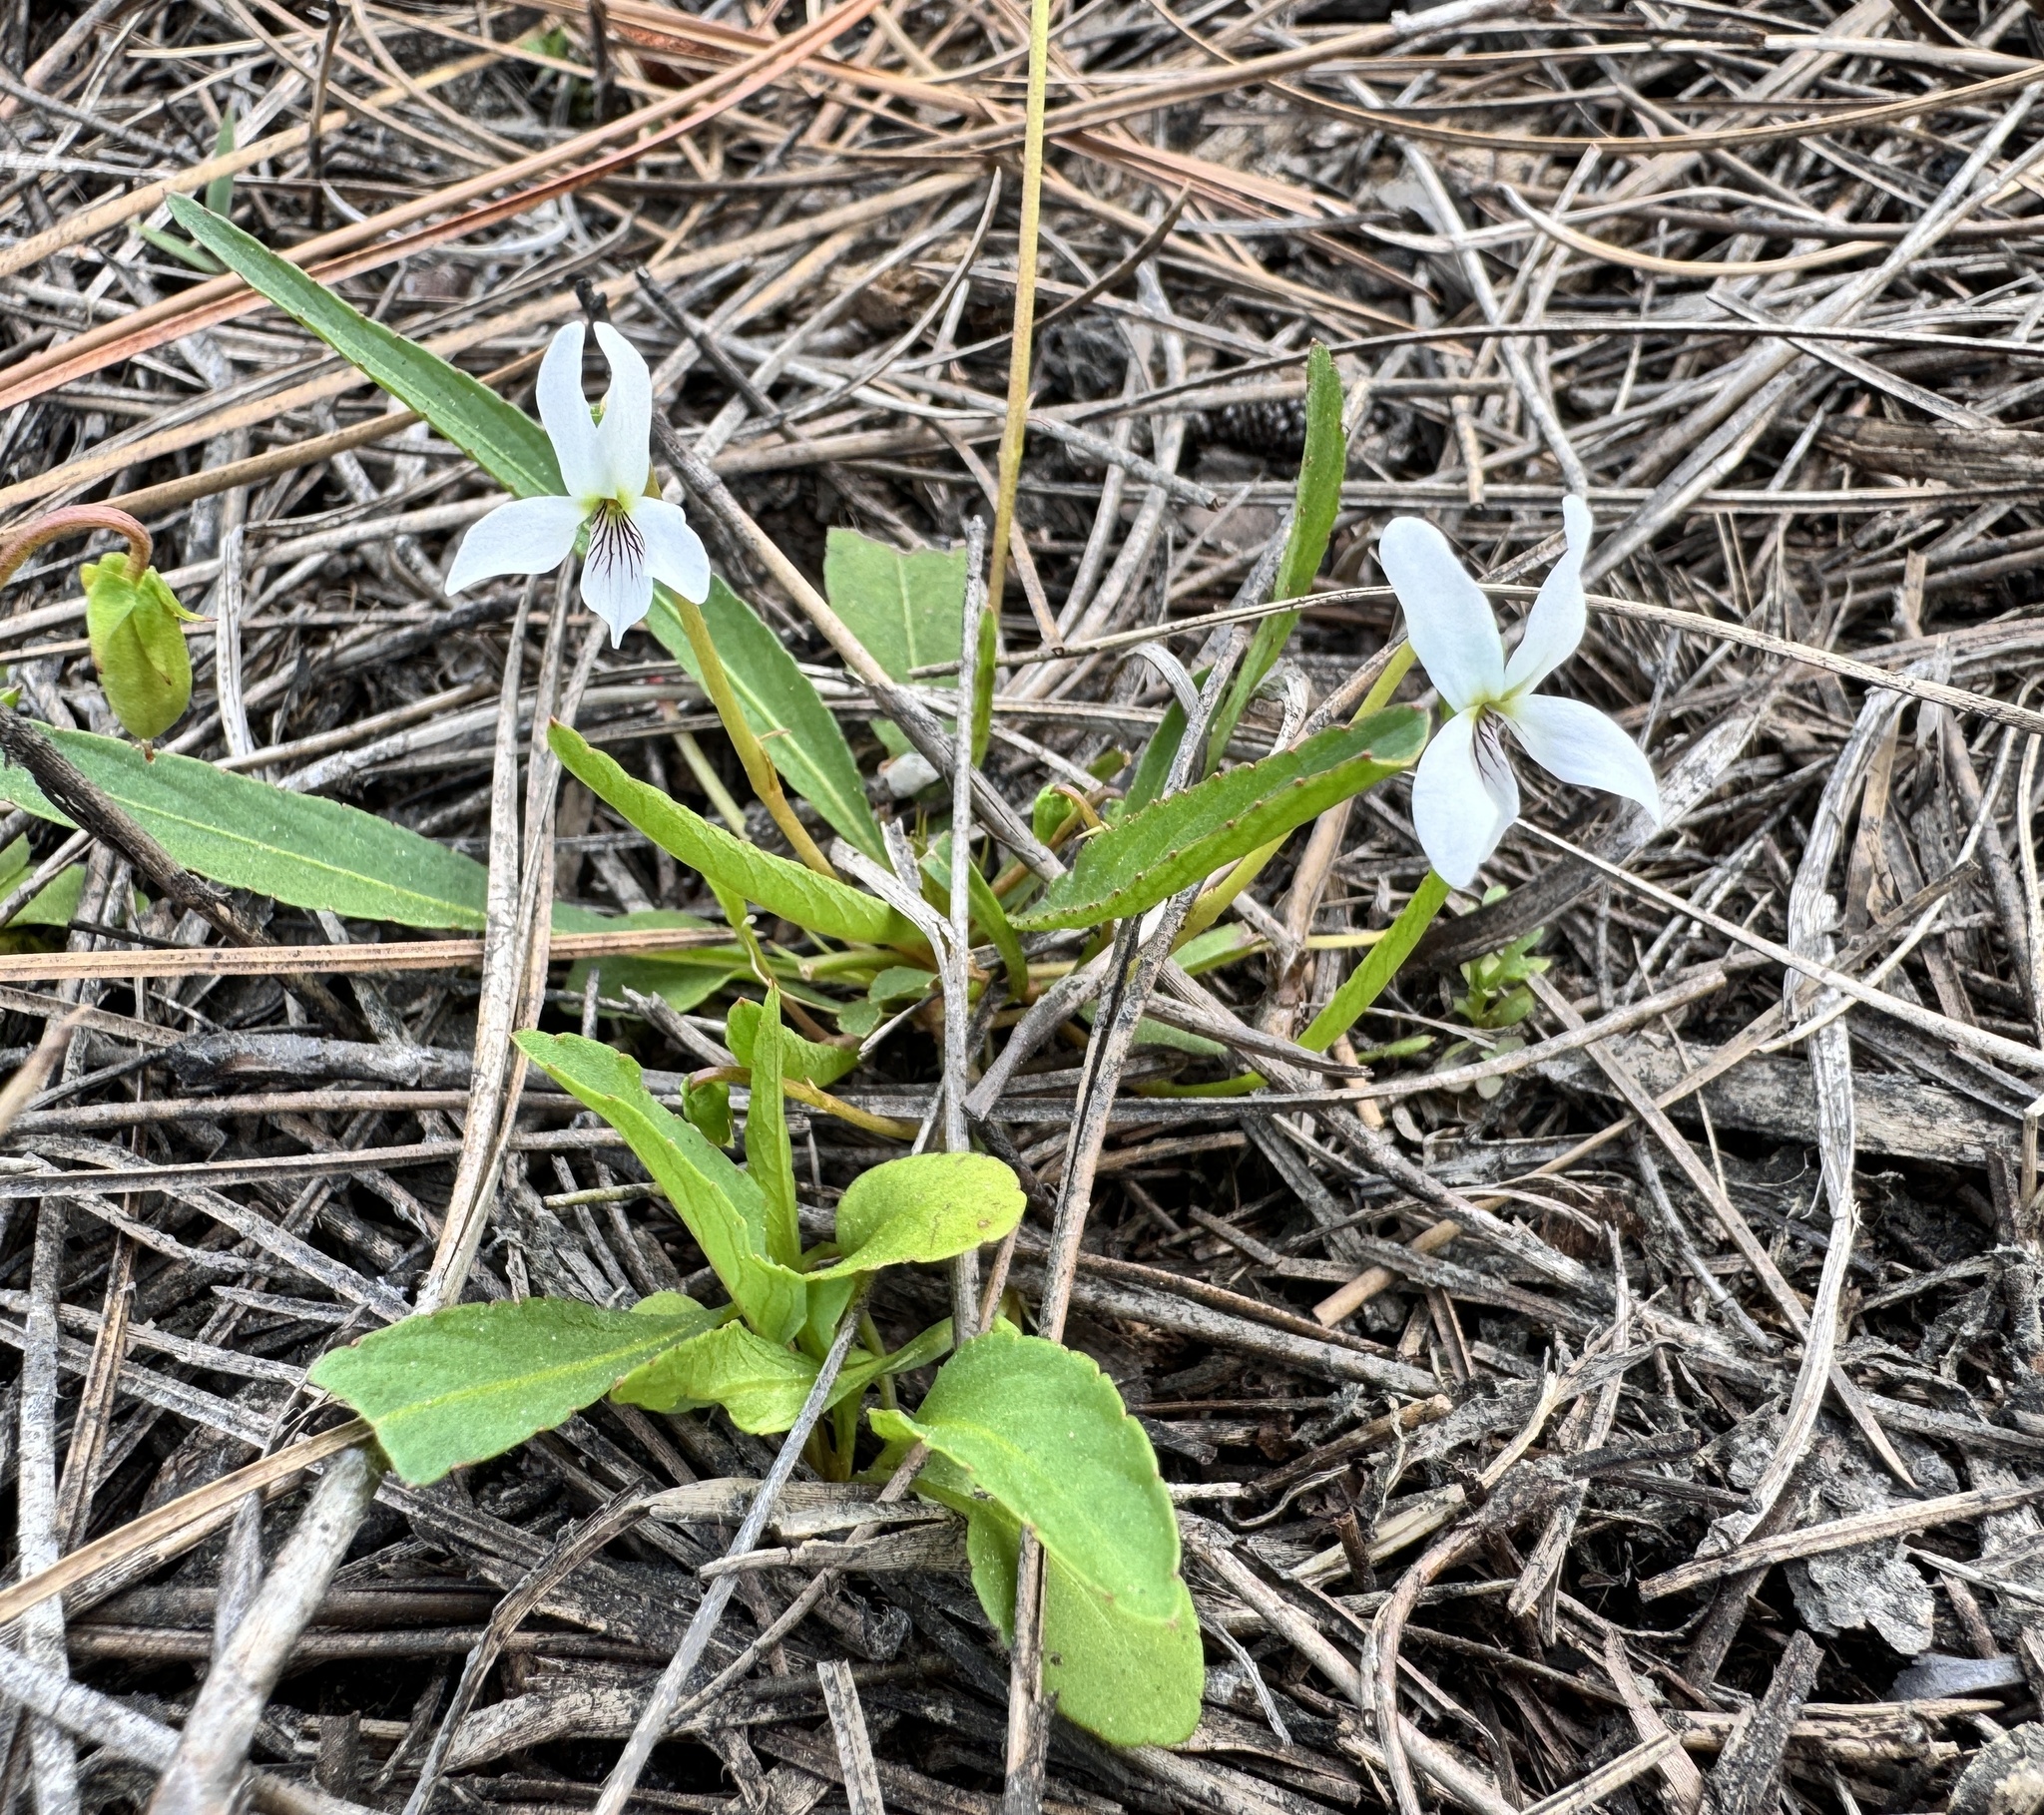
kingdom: Plantae
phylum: Tracheophyta
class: Magnoliopsida
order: Malpighiales
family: Violaceae
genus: Viola
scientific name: Viola vittata
